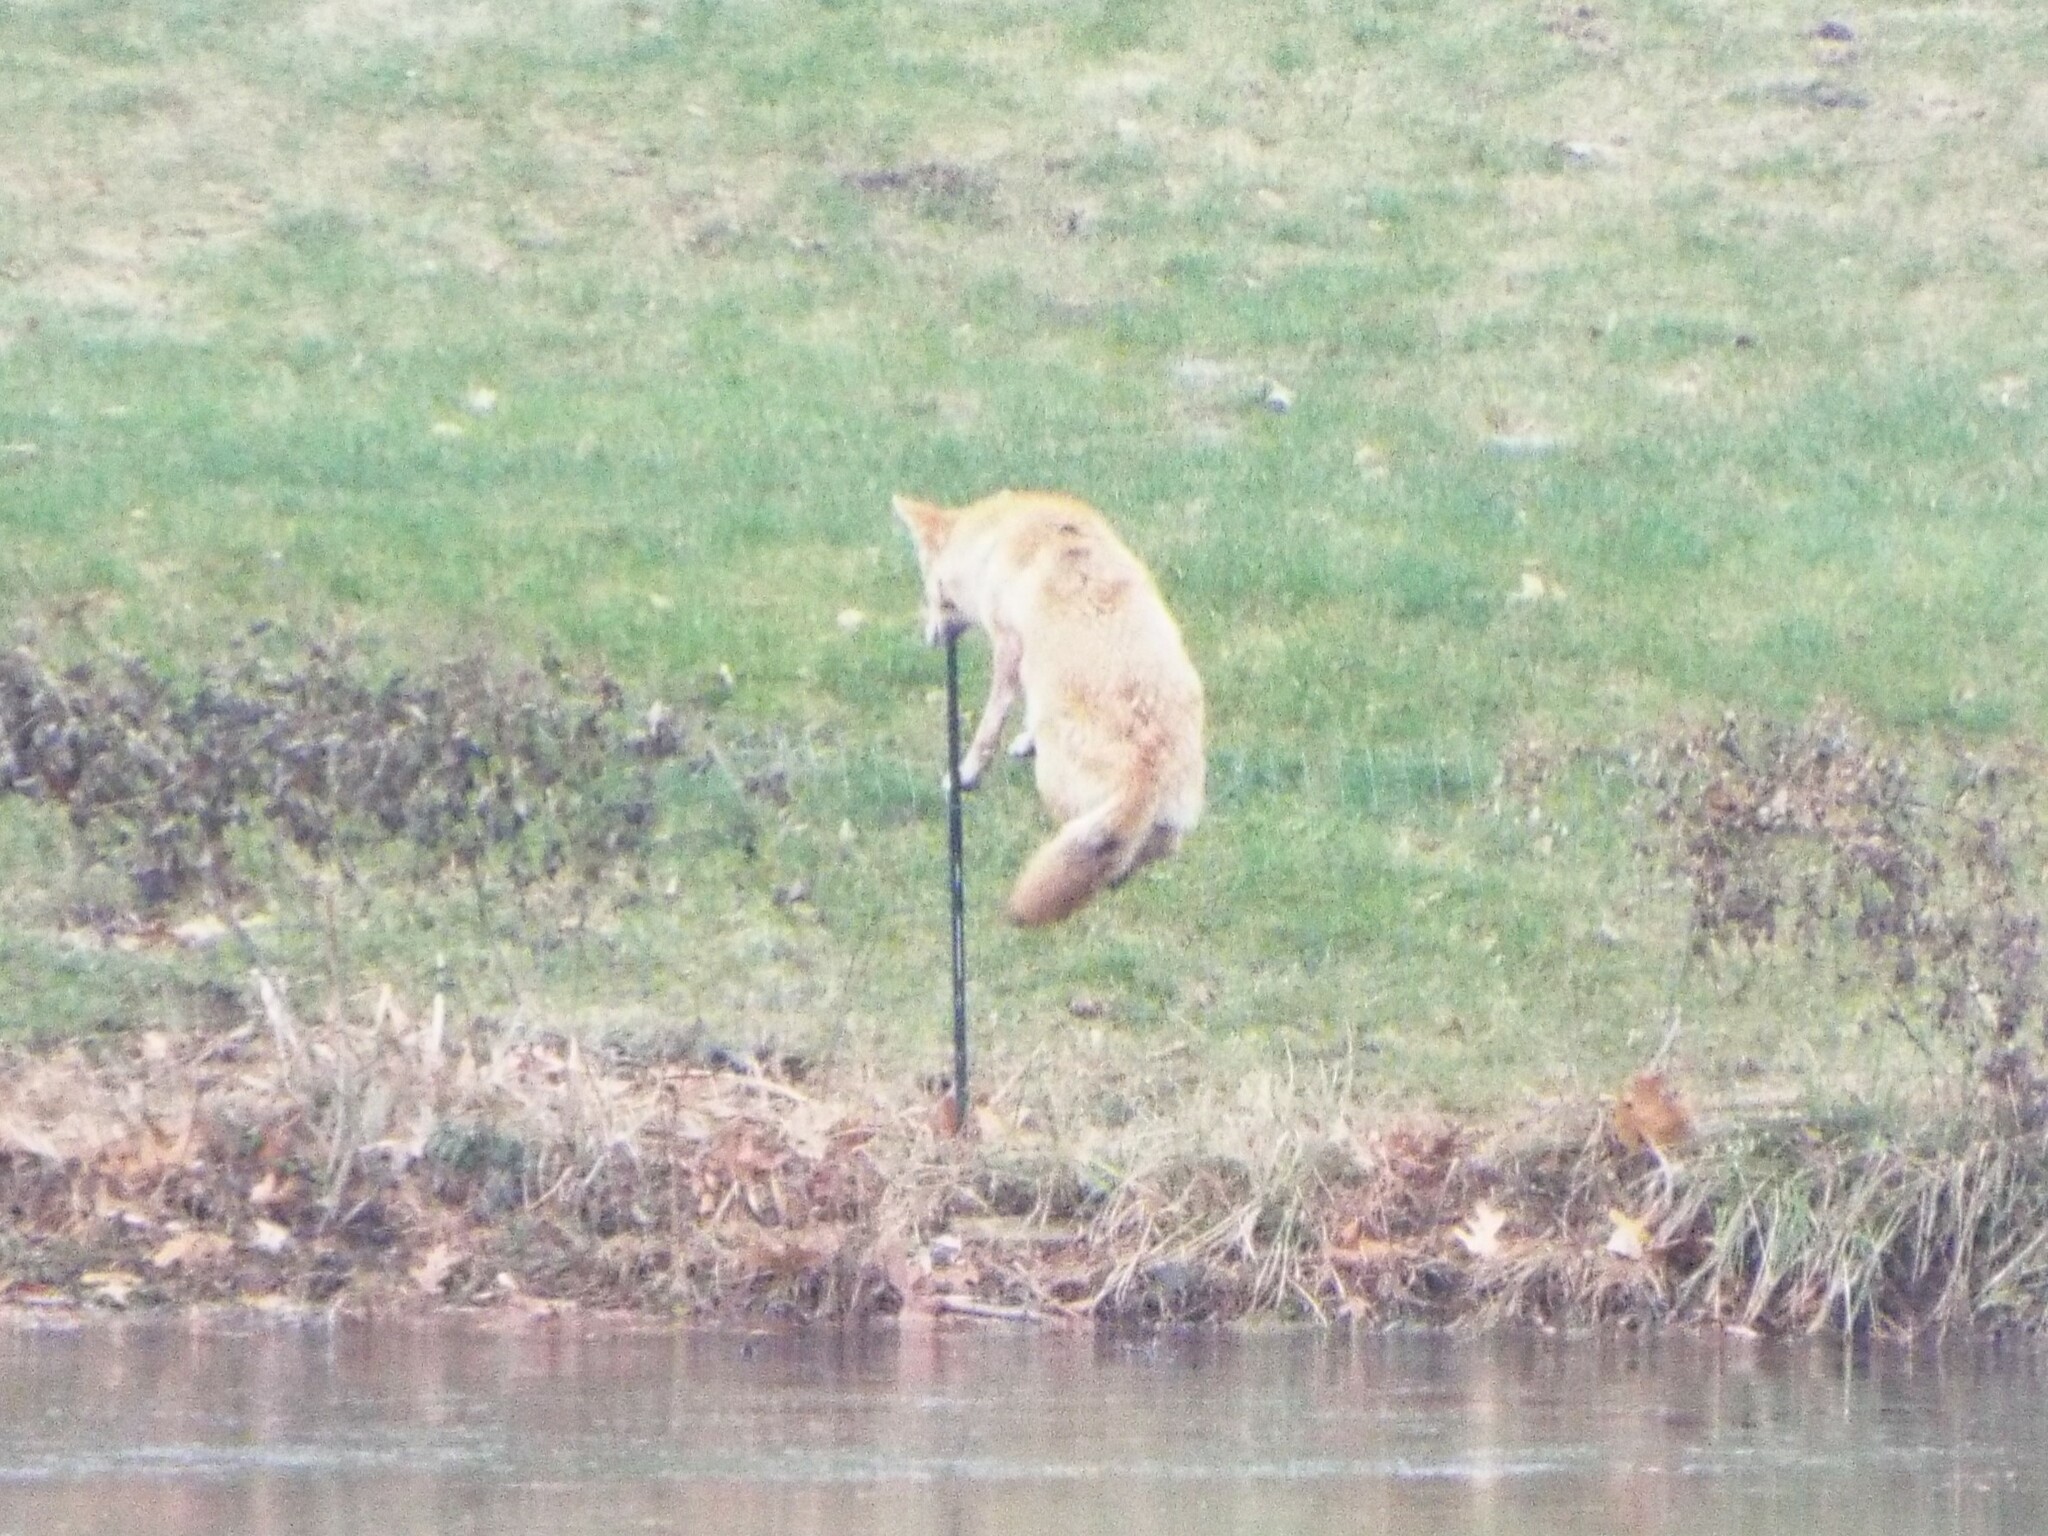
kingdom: Animalia
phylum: Chordata
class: Mammalia
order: Carnivora
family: Canidae
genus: Canis
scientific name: Canis latrans
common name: Coyote
